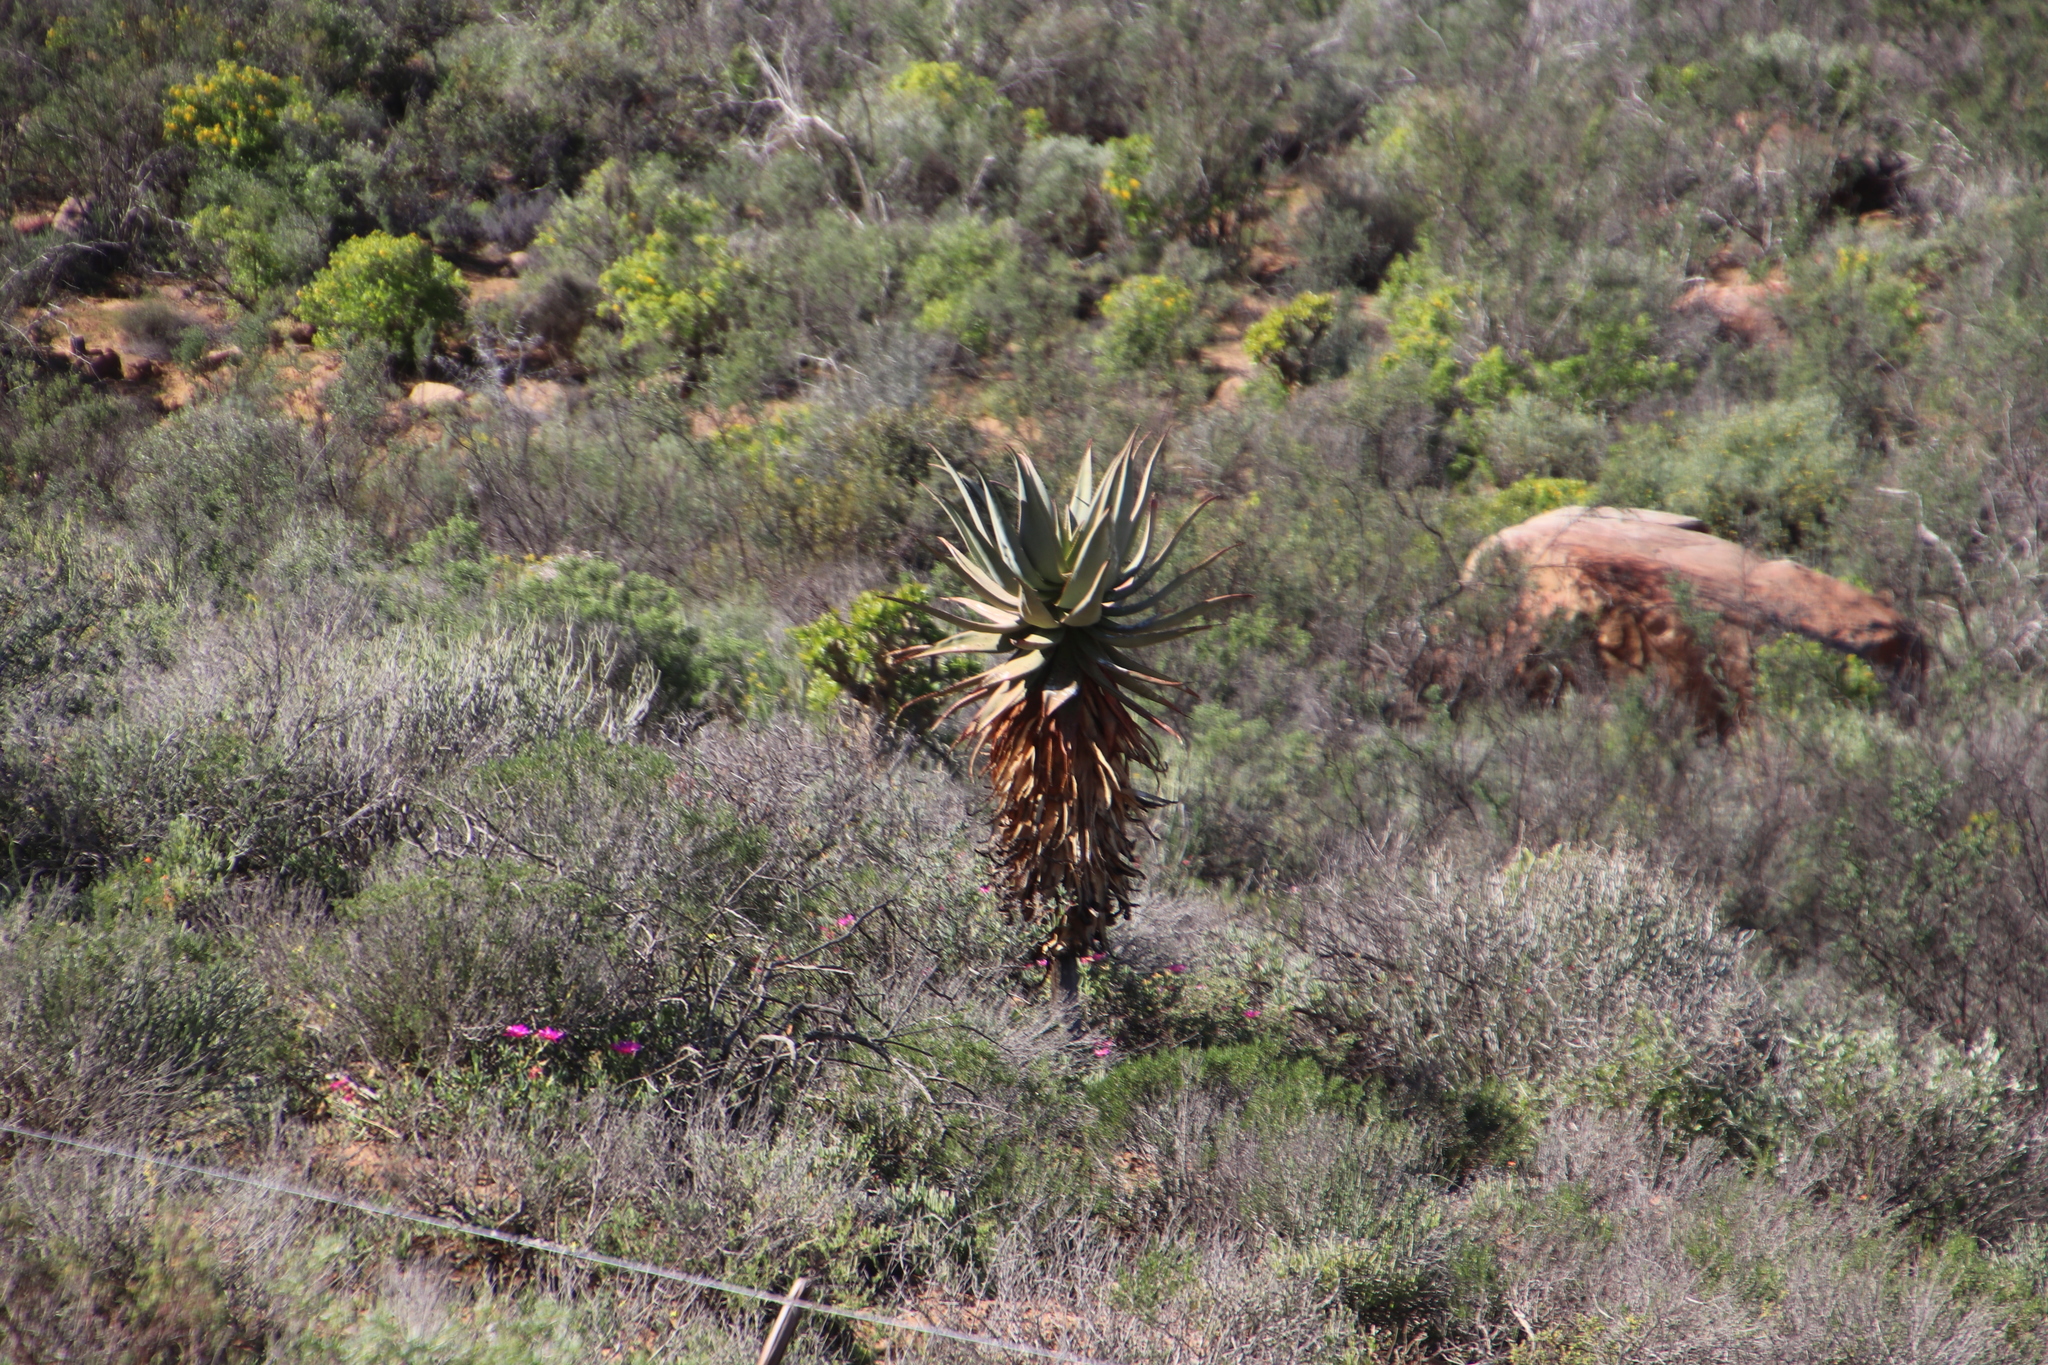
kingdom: Plantae
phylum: Tracheophyta
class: Liliopsida
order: Asparagales
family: Asphodelaceae
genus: Aloe
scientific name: Aloe comosa
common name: Clanwilliam aloe
